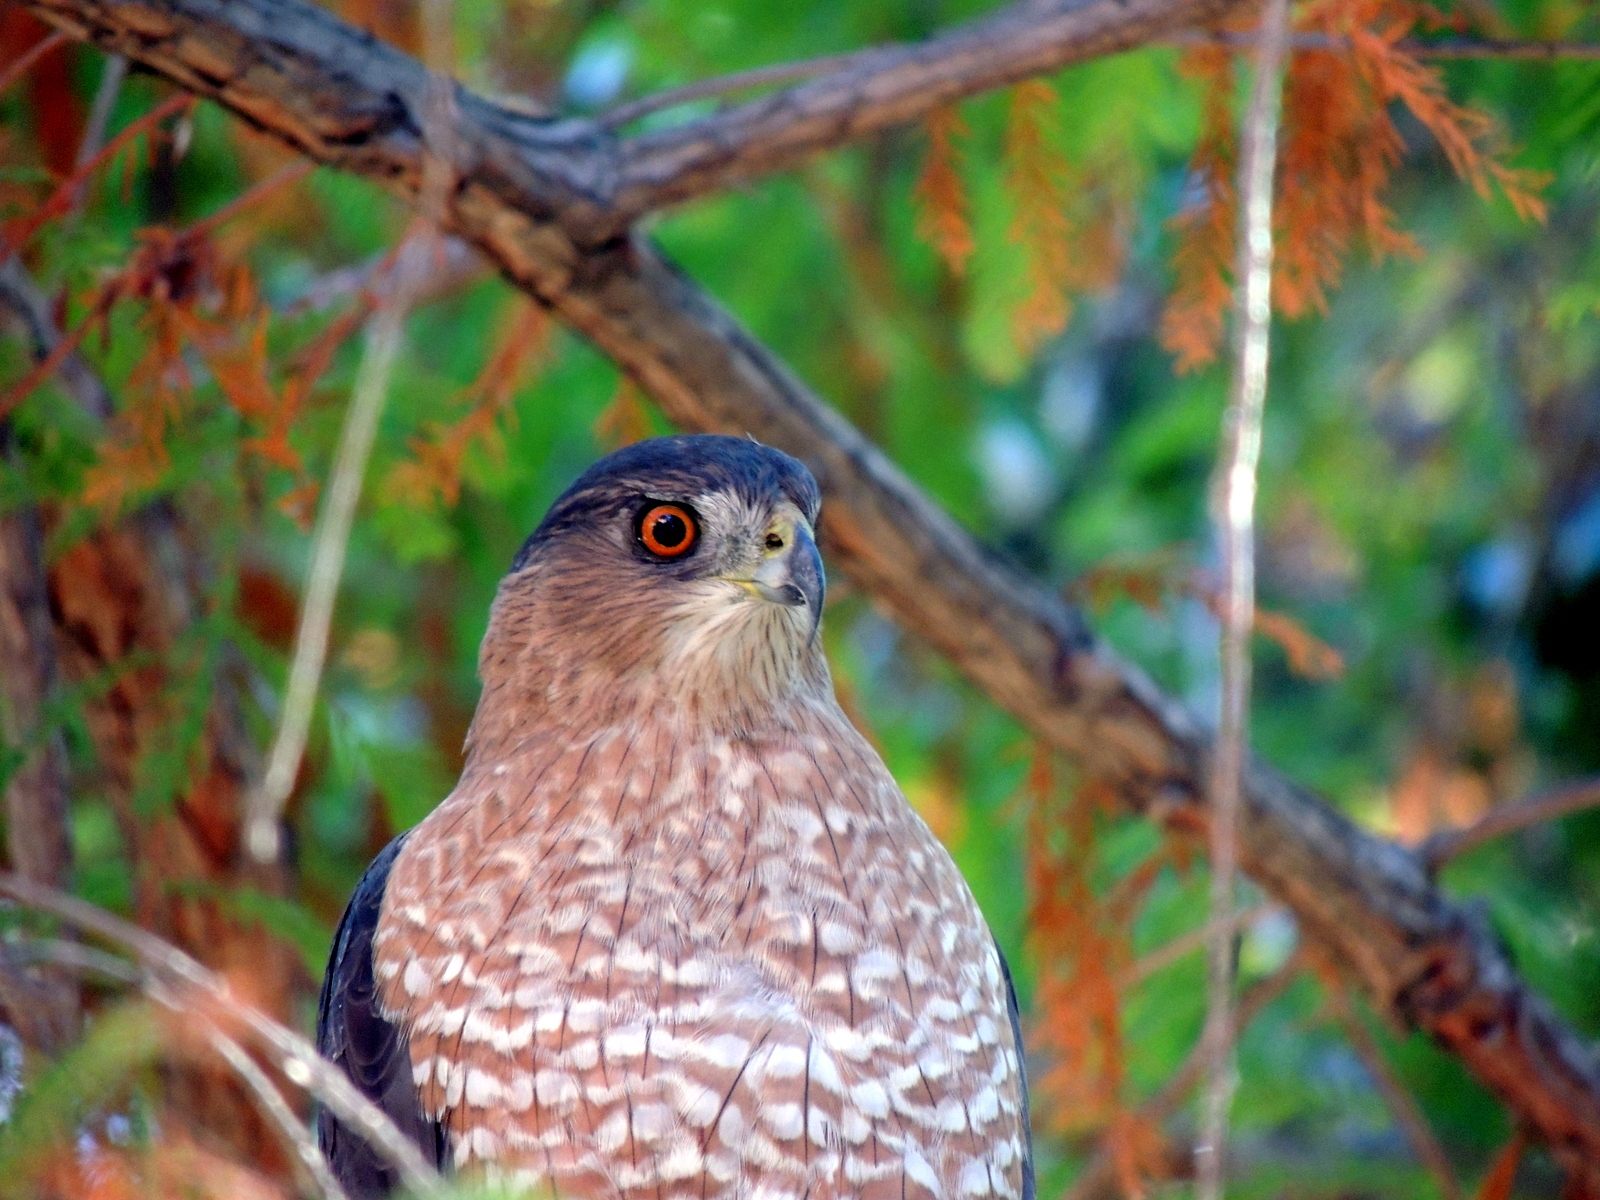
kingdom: Animalia
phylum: Chordata
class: Aves
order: Accipitriformes
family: Accipitridae
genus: Accipiter
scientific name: Accipiter cooperii
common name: Cooper's hawk
